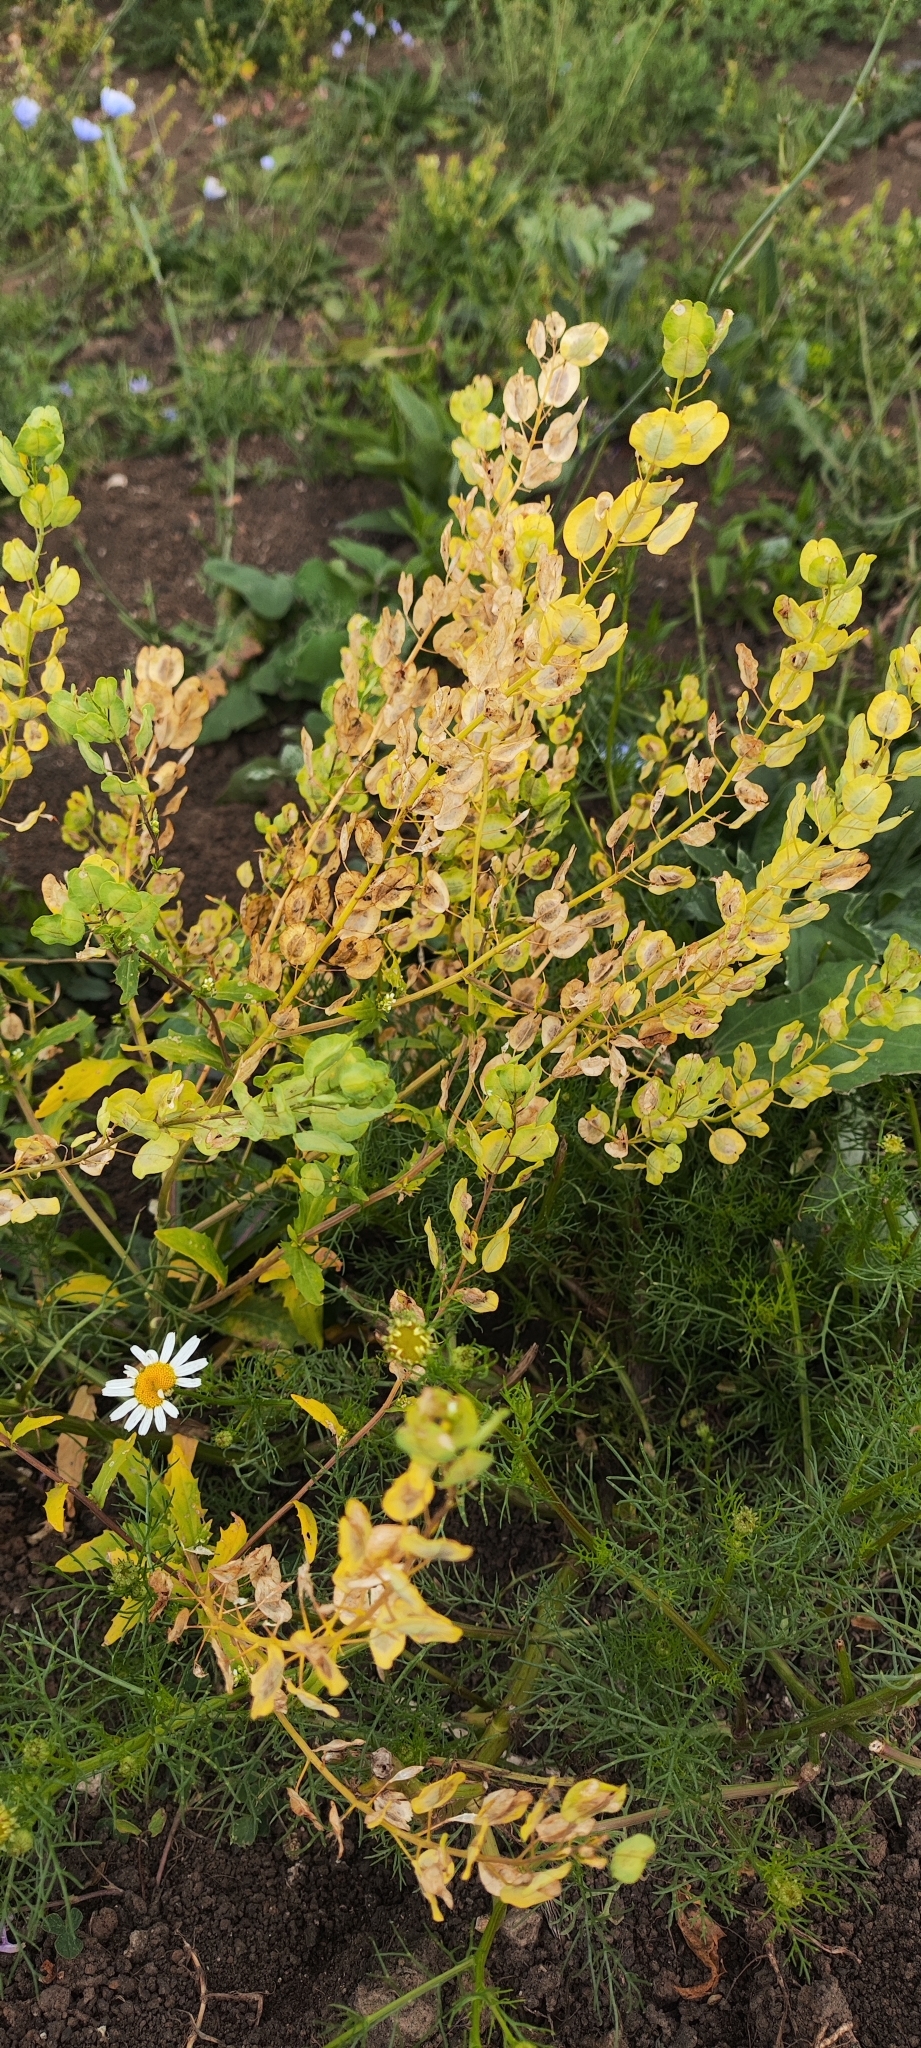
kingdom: Plantae
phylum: Tracheophyta
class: Magnoliopsida
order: Brassicales
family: Brassicaceae
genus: Thlaspi
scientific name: Thlaspi arvense
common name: Field pennycress
